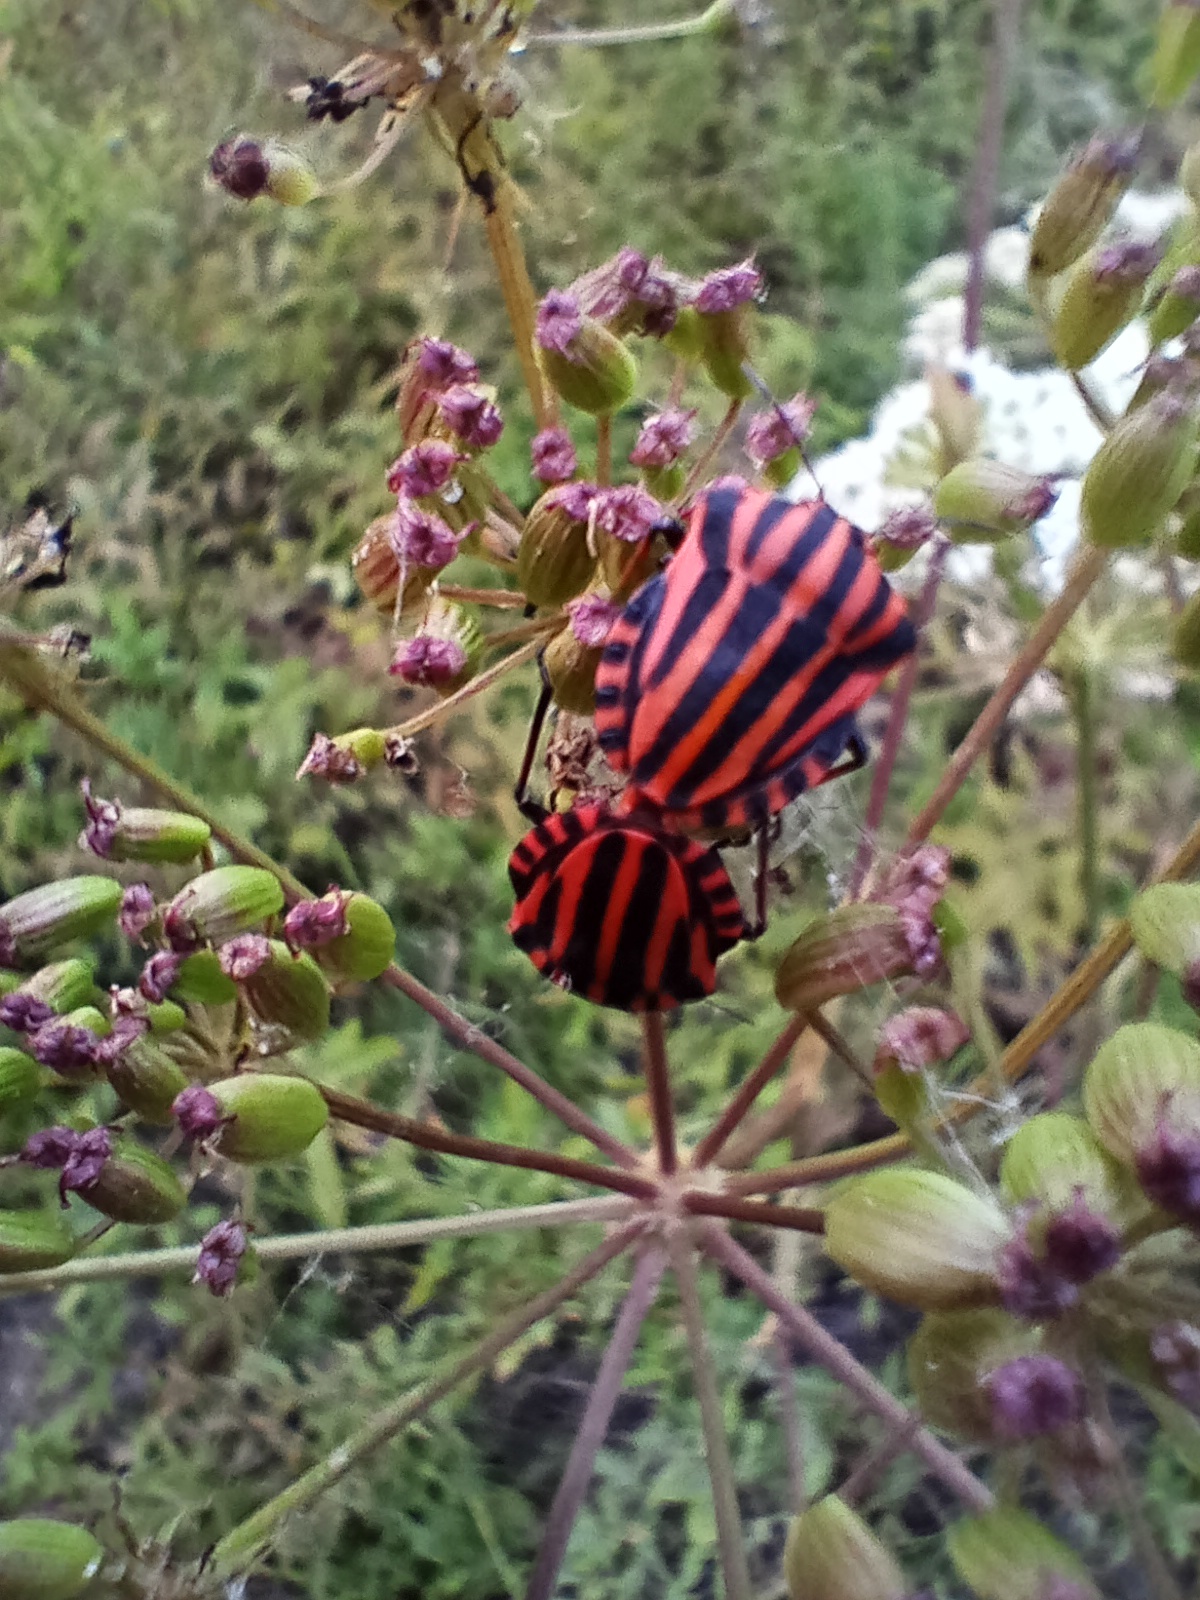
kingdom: Animalia
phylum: Arthropoda
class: Insecta
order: Hemiptera
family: Pentatomidae
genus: Graphosoma
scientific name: Graphosoma italicum
